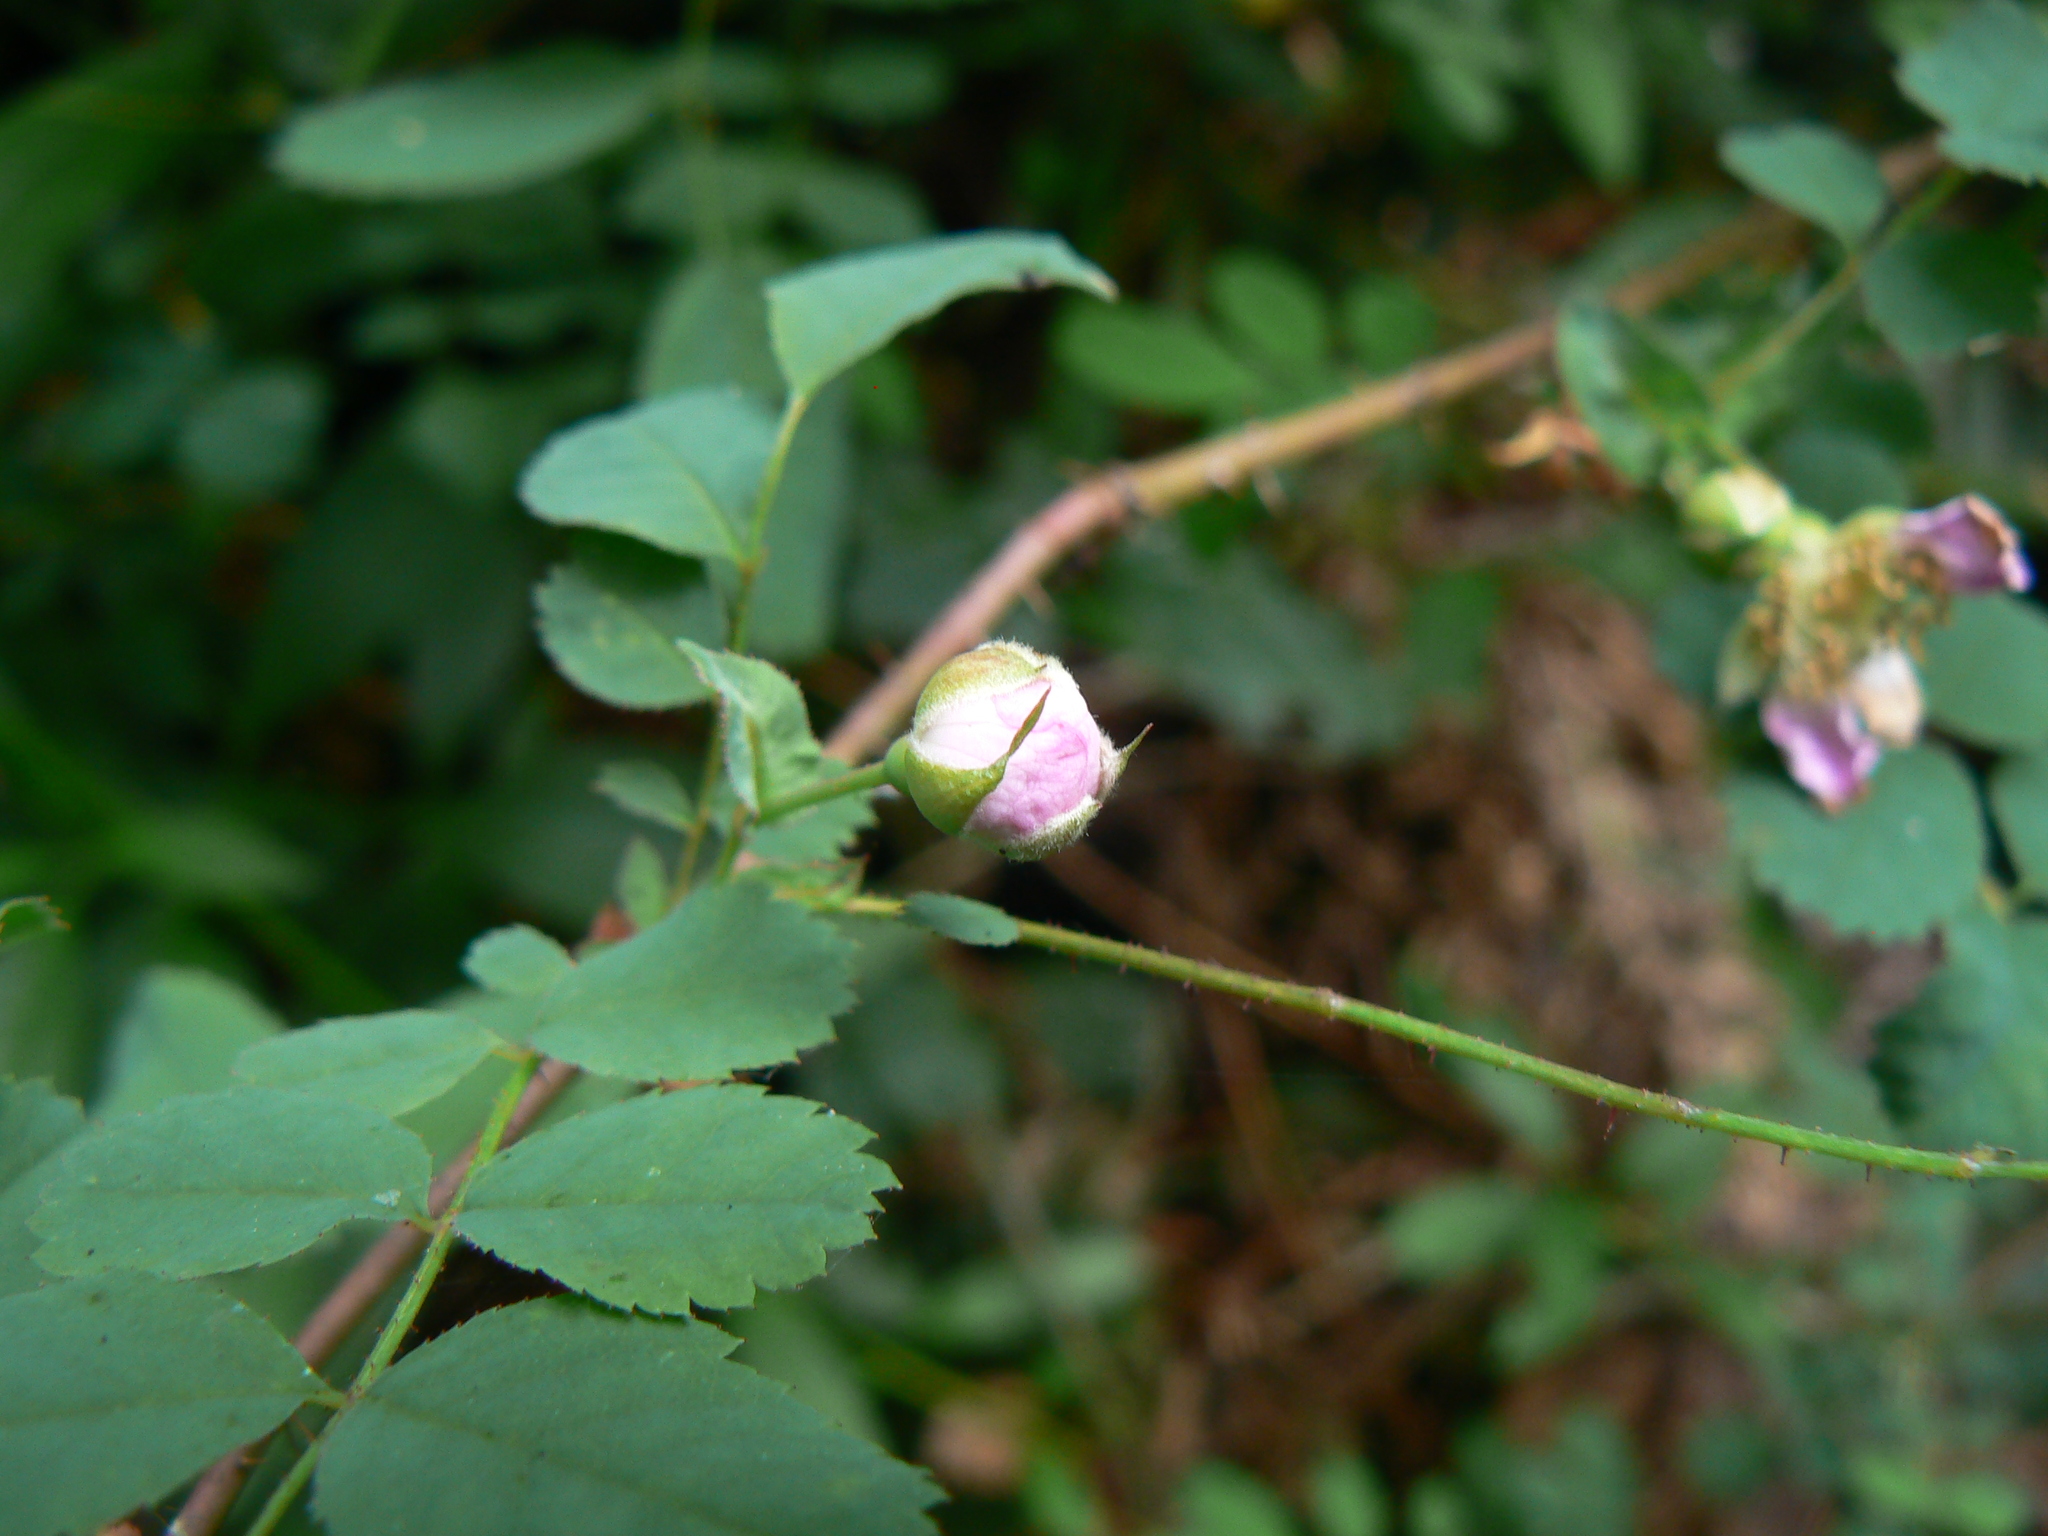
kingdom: Plantae
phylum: Tracheophyta
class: Magnoliopsida
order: Rosales
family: Rosaceae
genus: Rosa
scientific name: Rosa gymnocarpa
